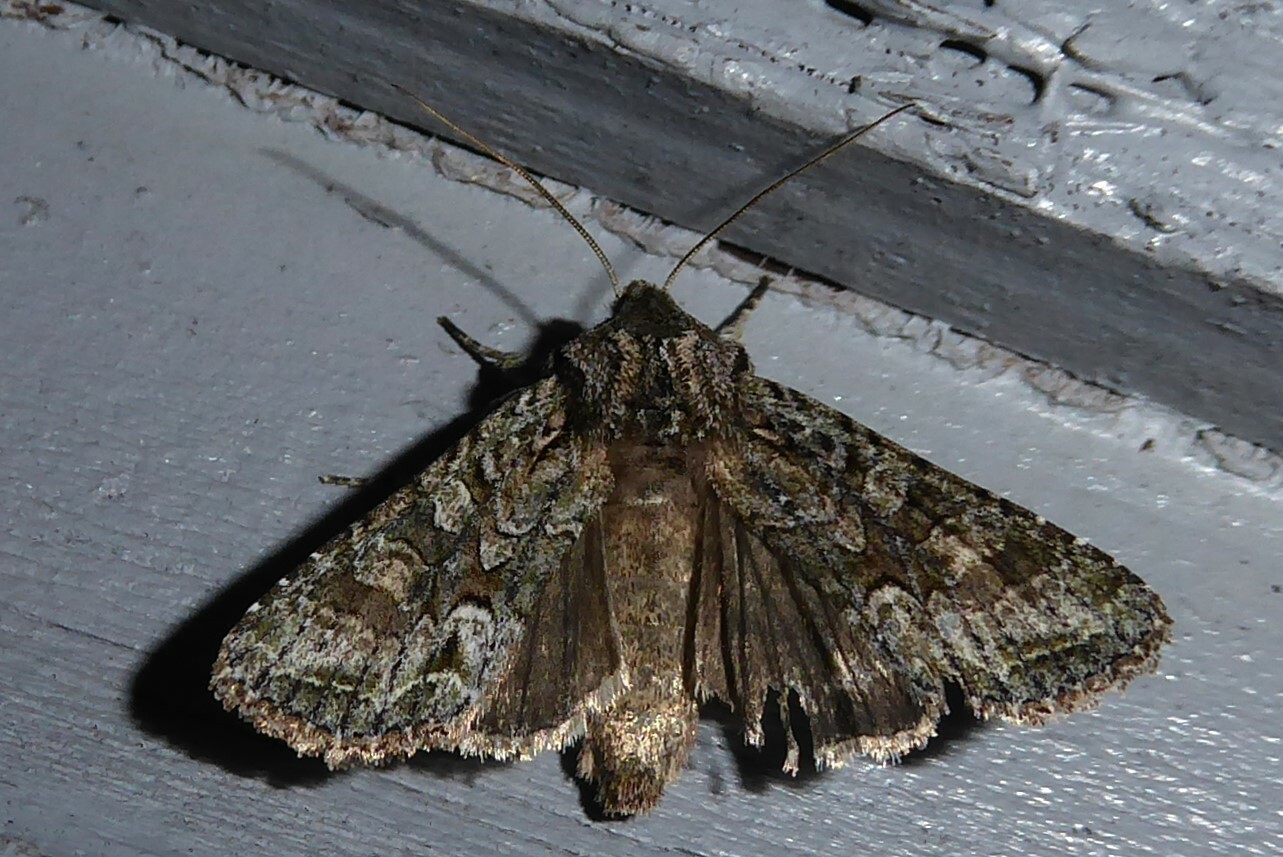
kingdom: Animalia
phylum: Arthropoda
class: Insecta
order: Lepidoptera
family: Noctuidae
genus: Ichneutica
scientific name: Ichneutica mutans
